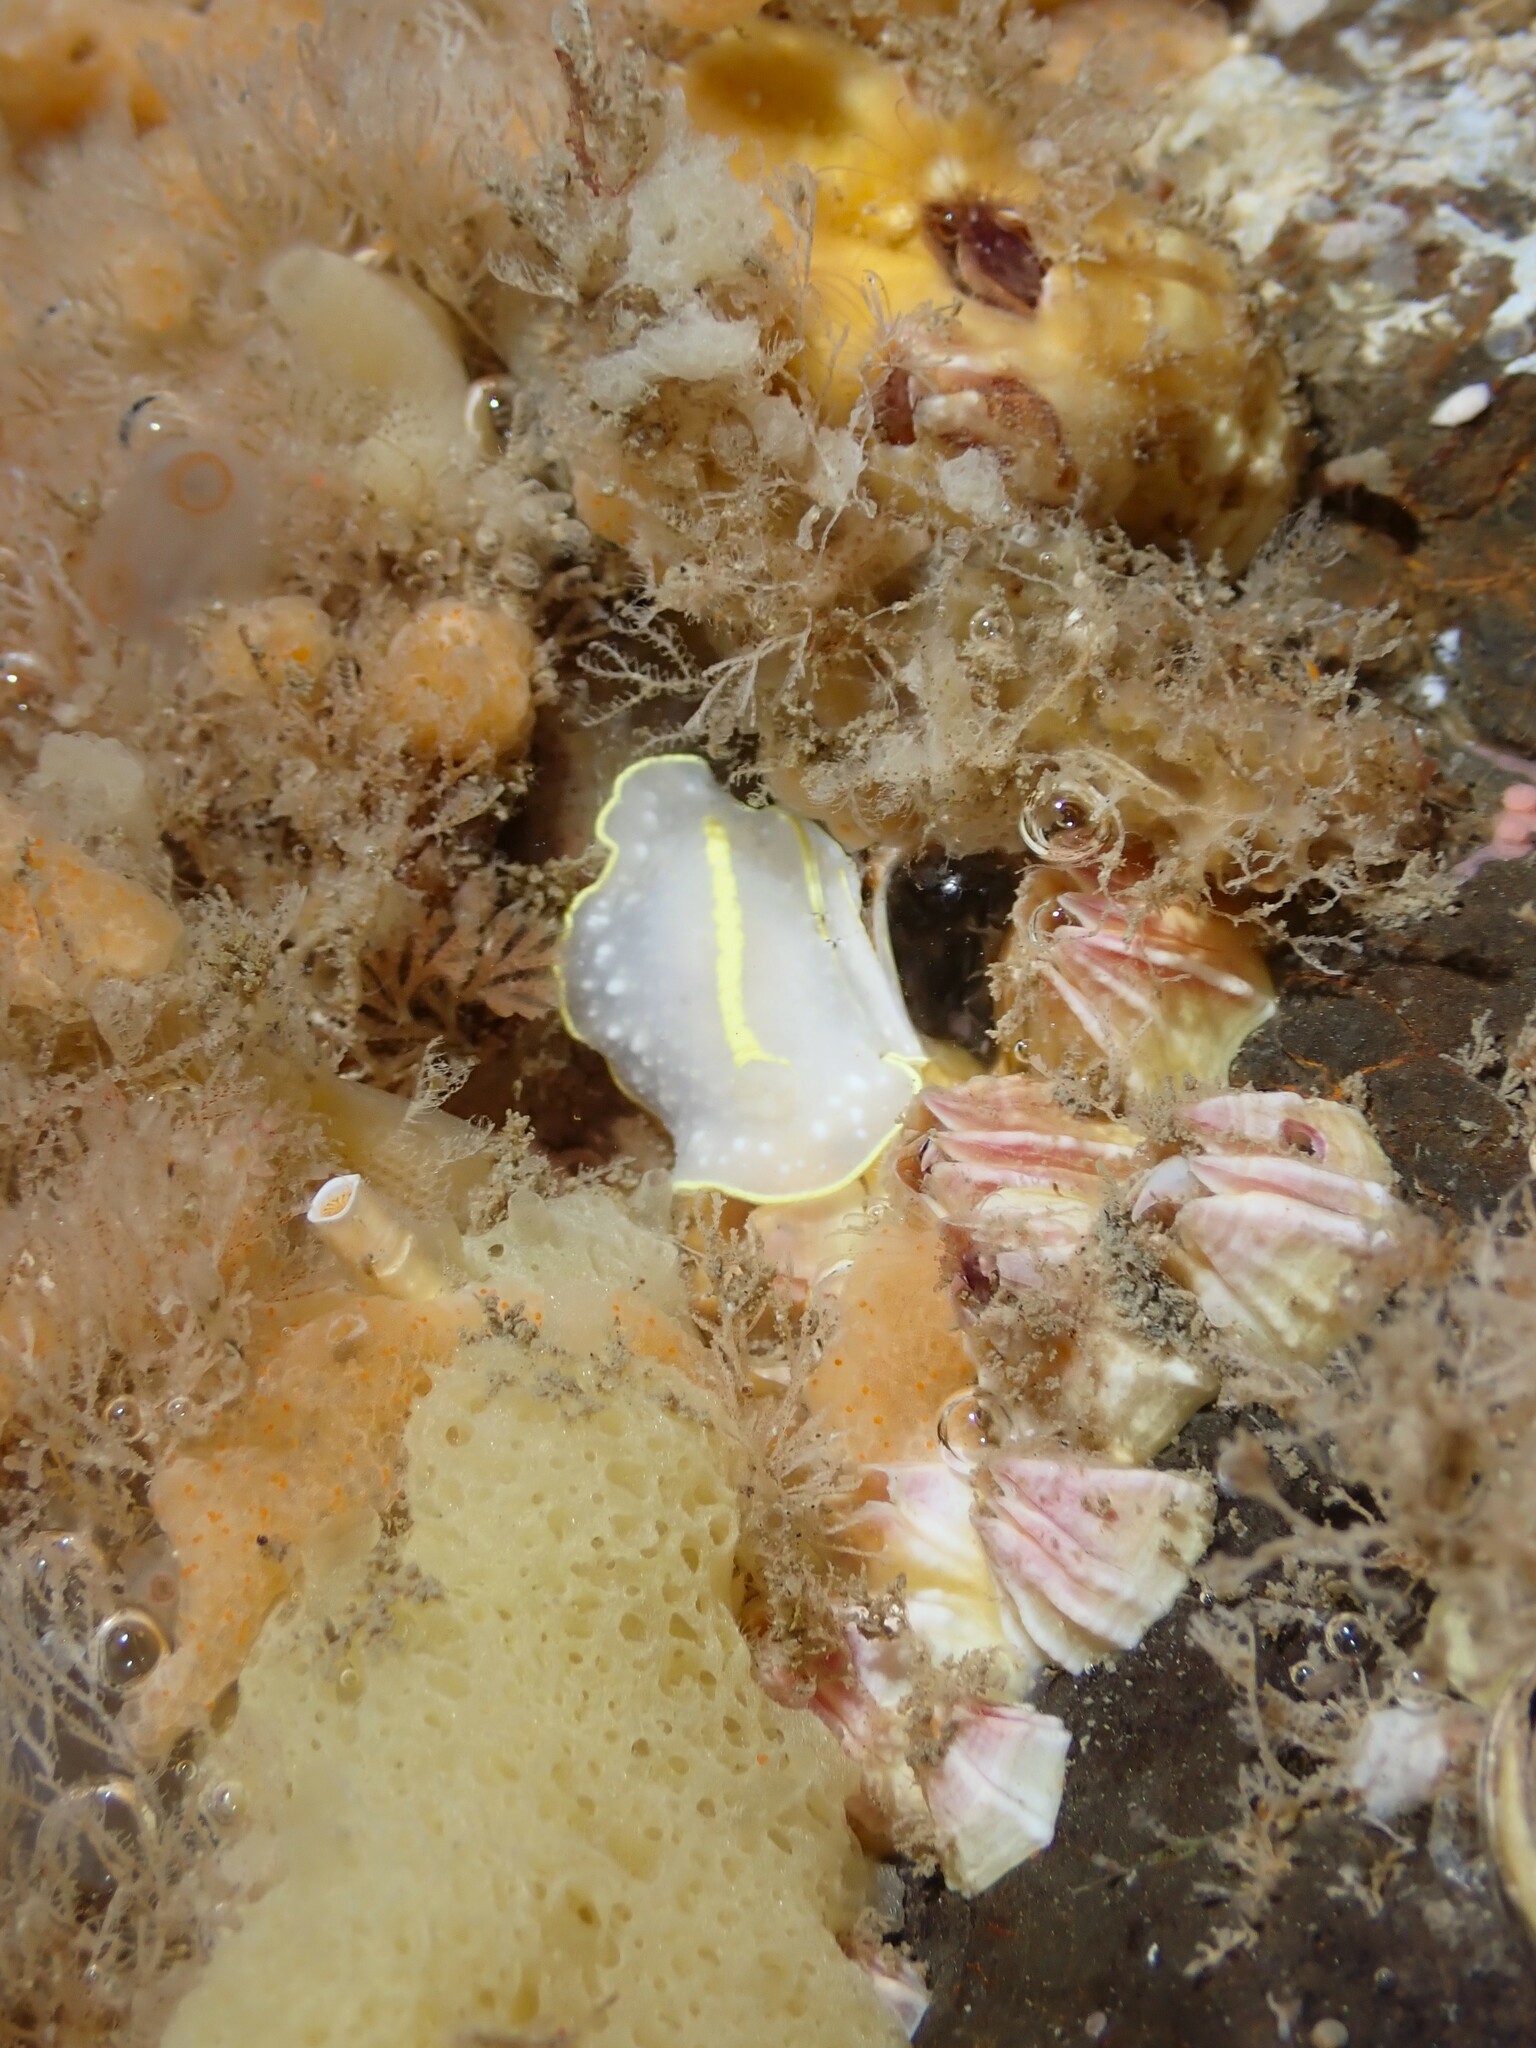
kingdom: Animalia
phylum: Mollusca
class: Gastropoda
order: Nudibranchia
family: Cadlinidae
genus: Cadlina
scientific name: Cadlina willani
